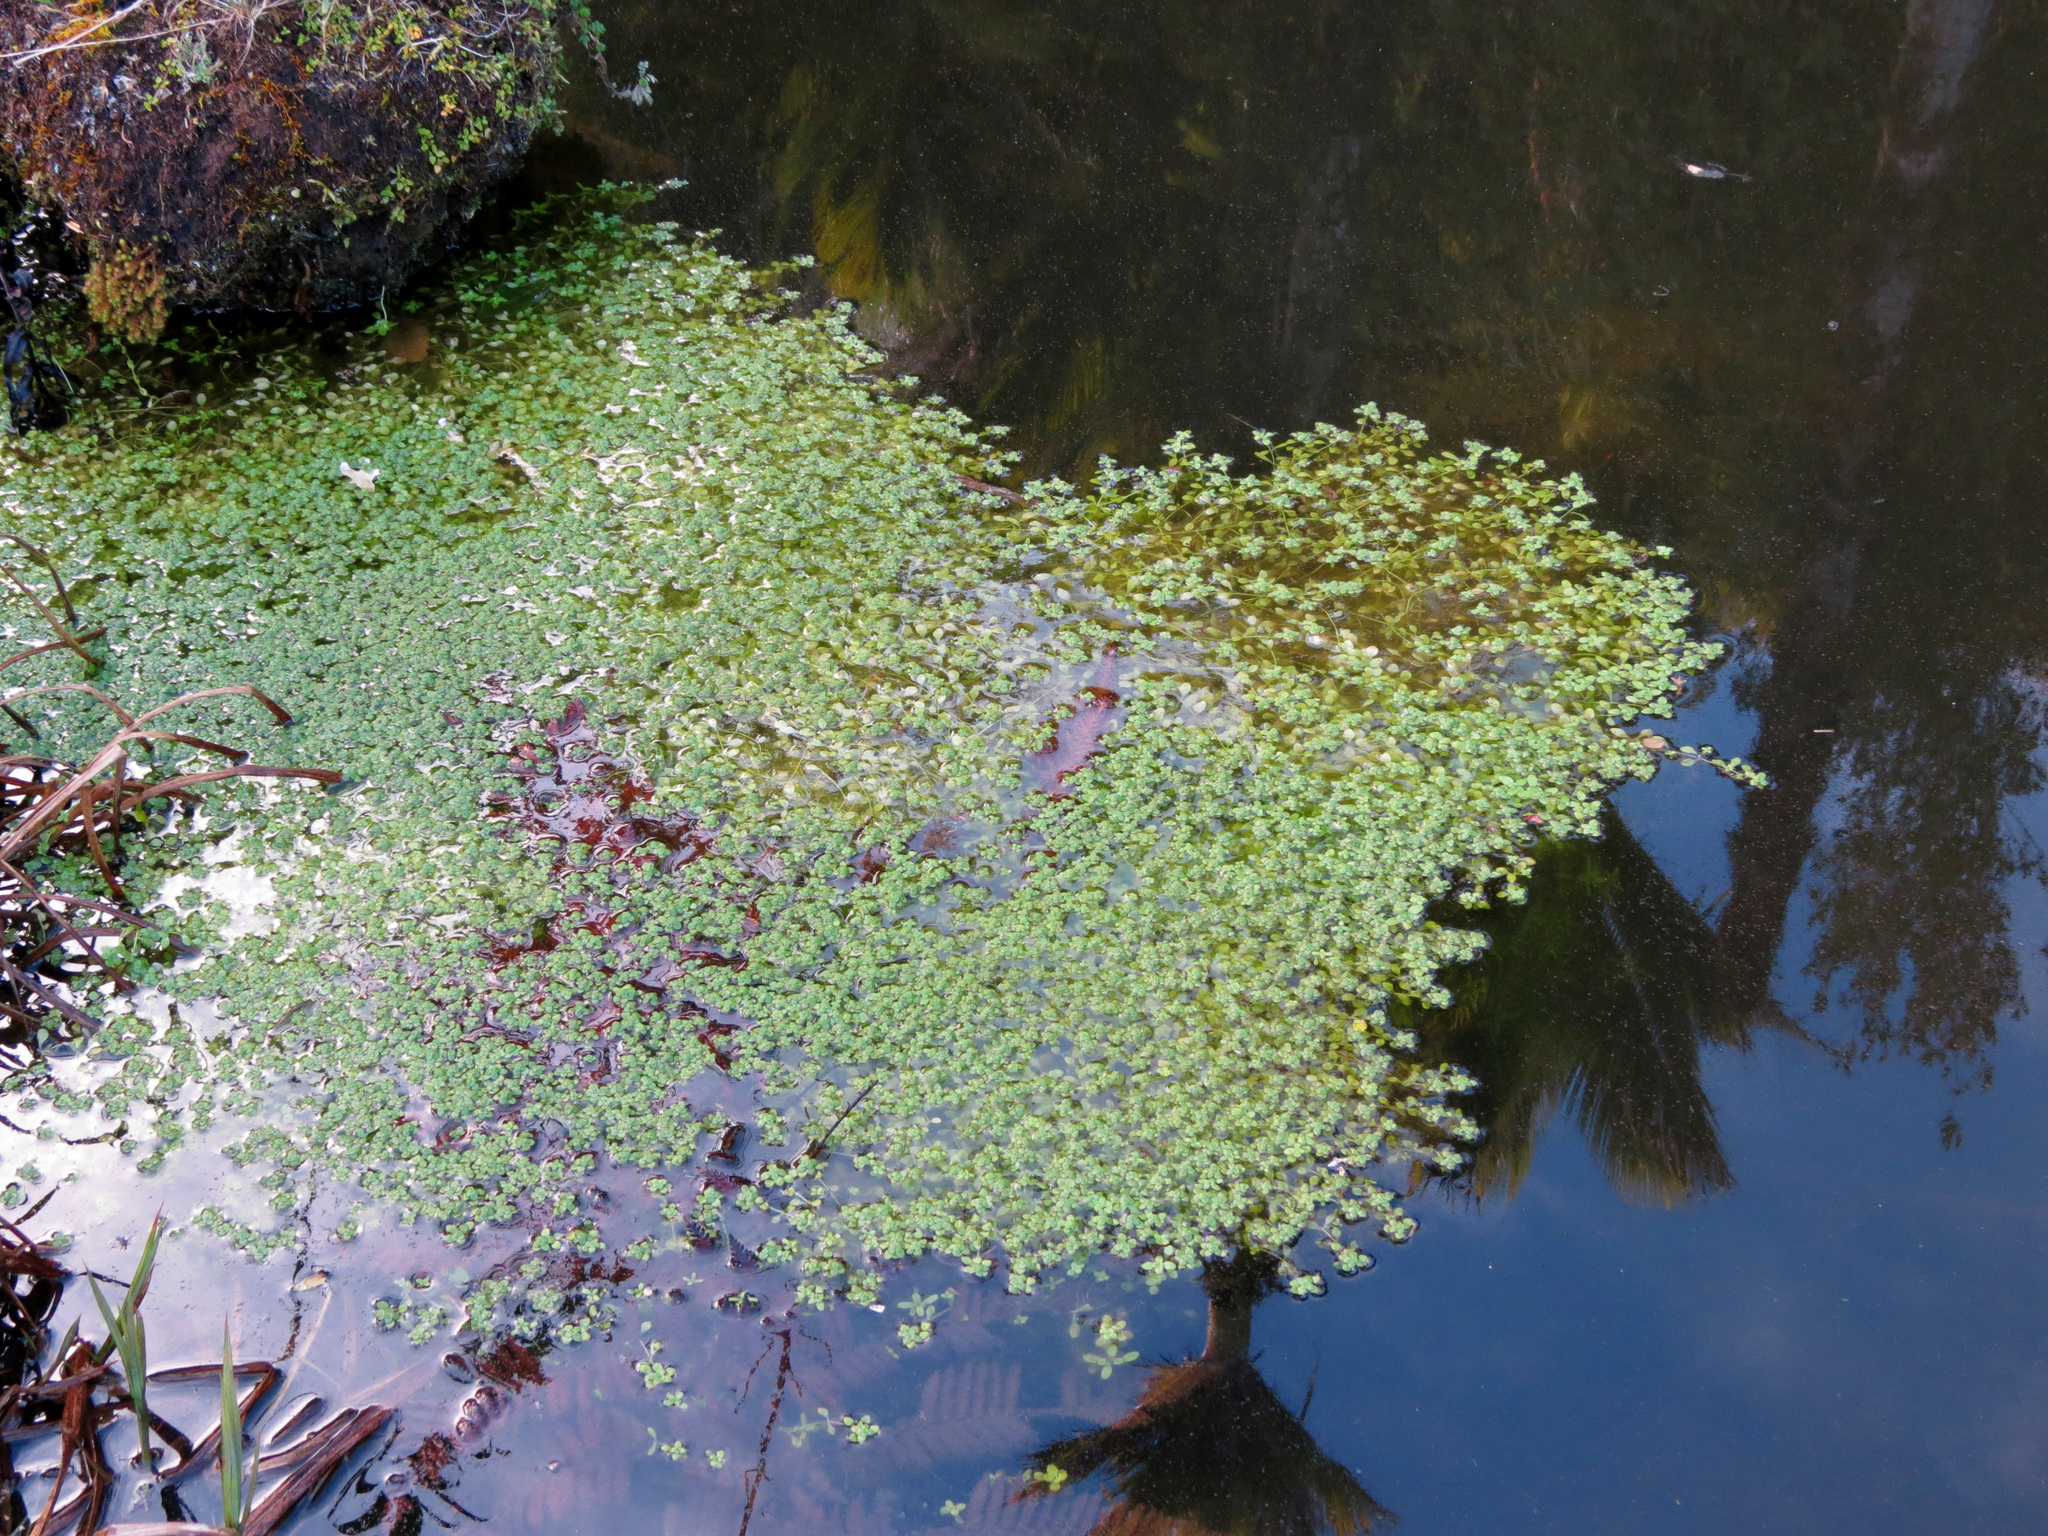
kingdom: Plantae
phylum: Tracheophyta
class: Magnoliopsida
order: Lamiales
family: Plantaginaceae
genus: Callitriche
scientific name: Callitriche petriei
